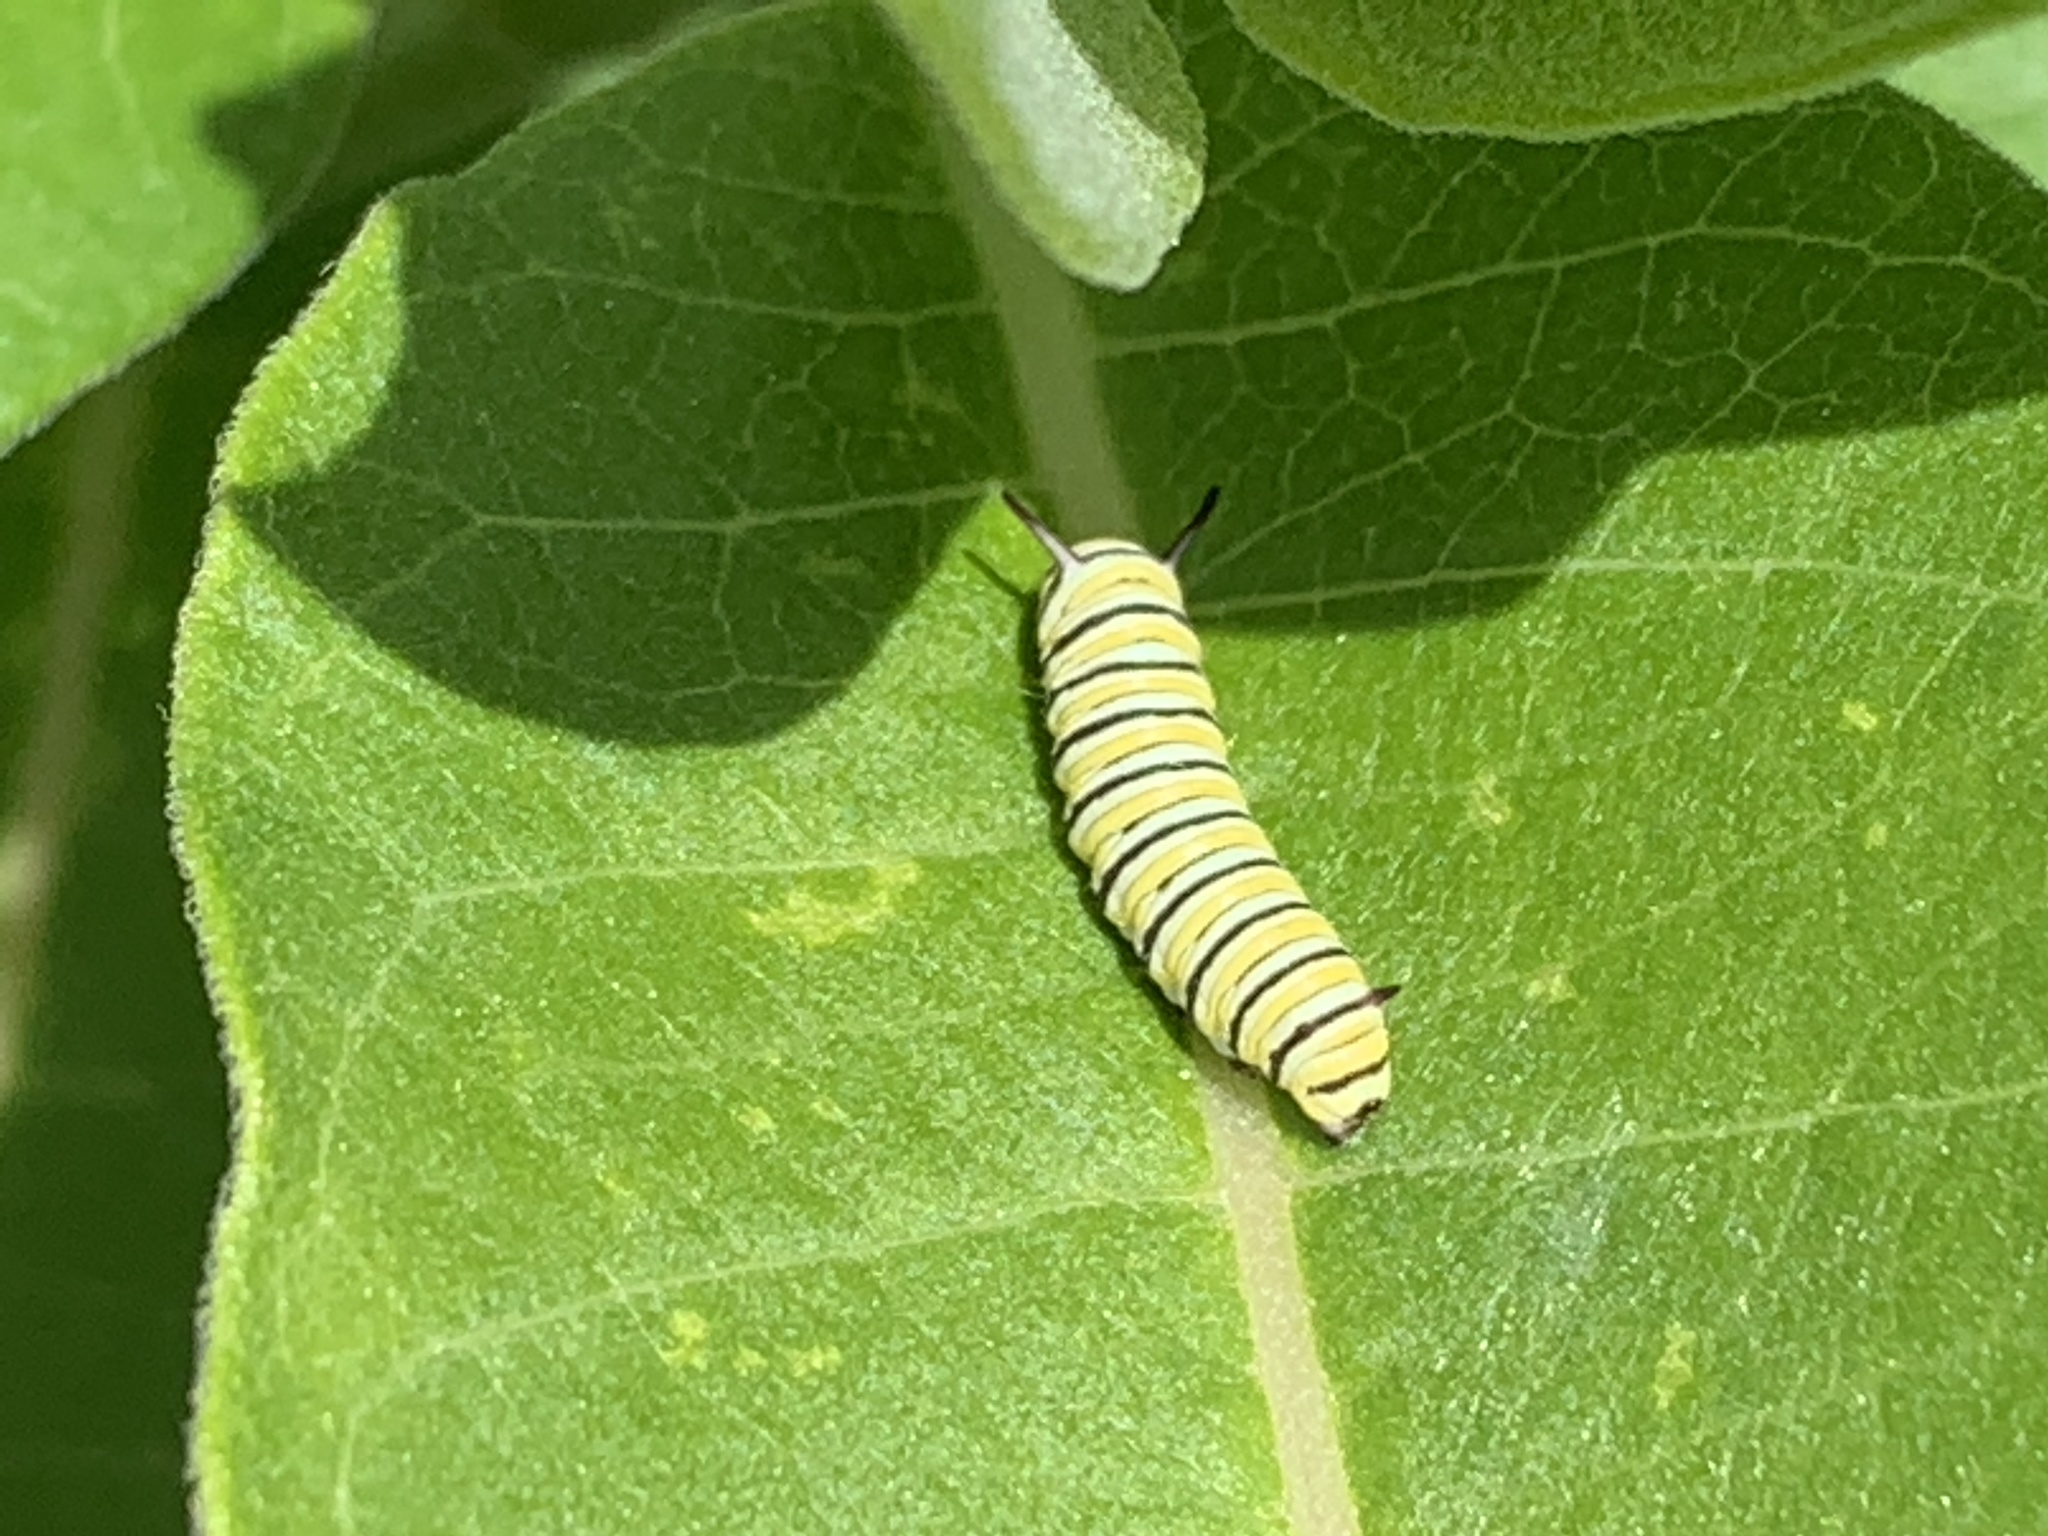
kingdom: Animalia
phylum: Arthropoda
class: Insecta
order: Lepidoptera
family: Nymphalidae
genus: Danaus
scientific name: Danaus plexippus
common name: Monarch
